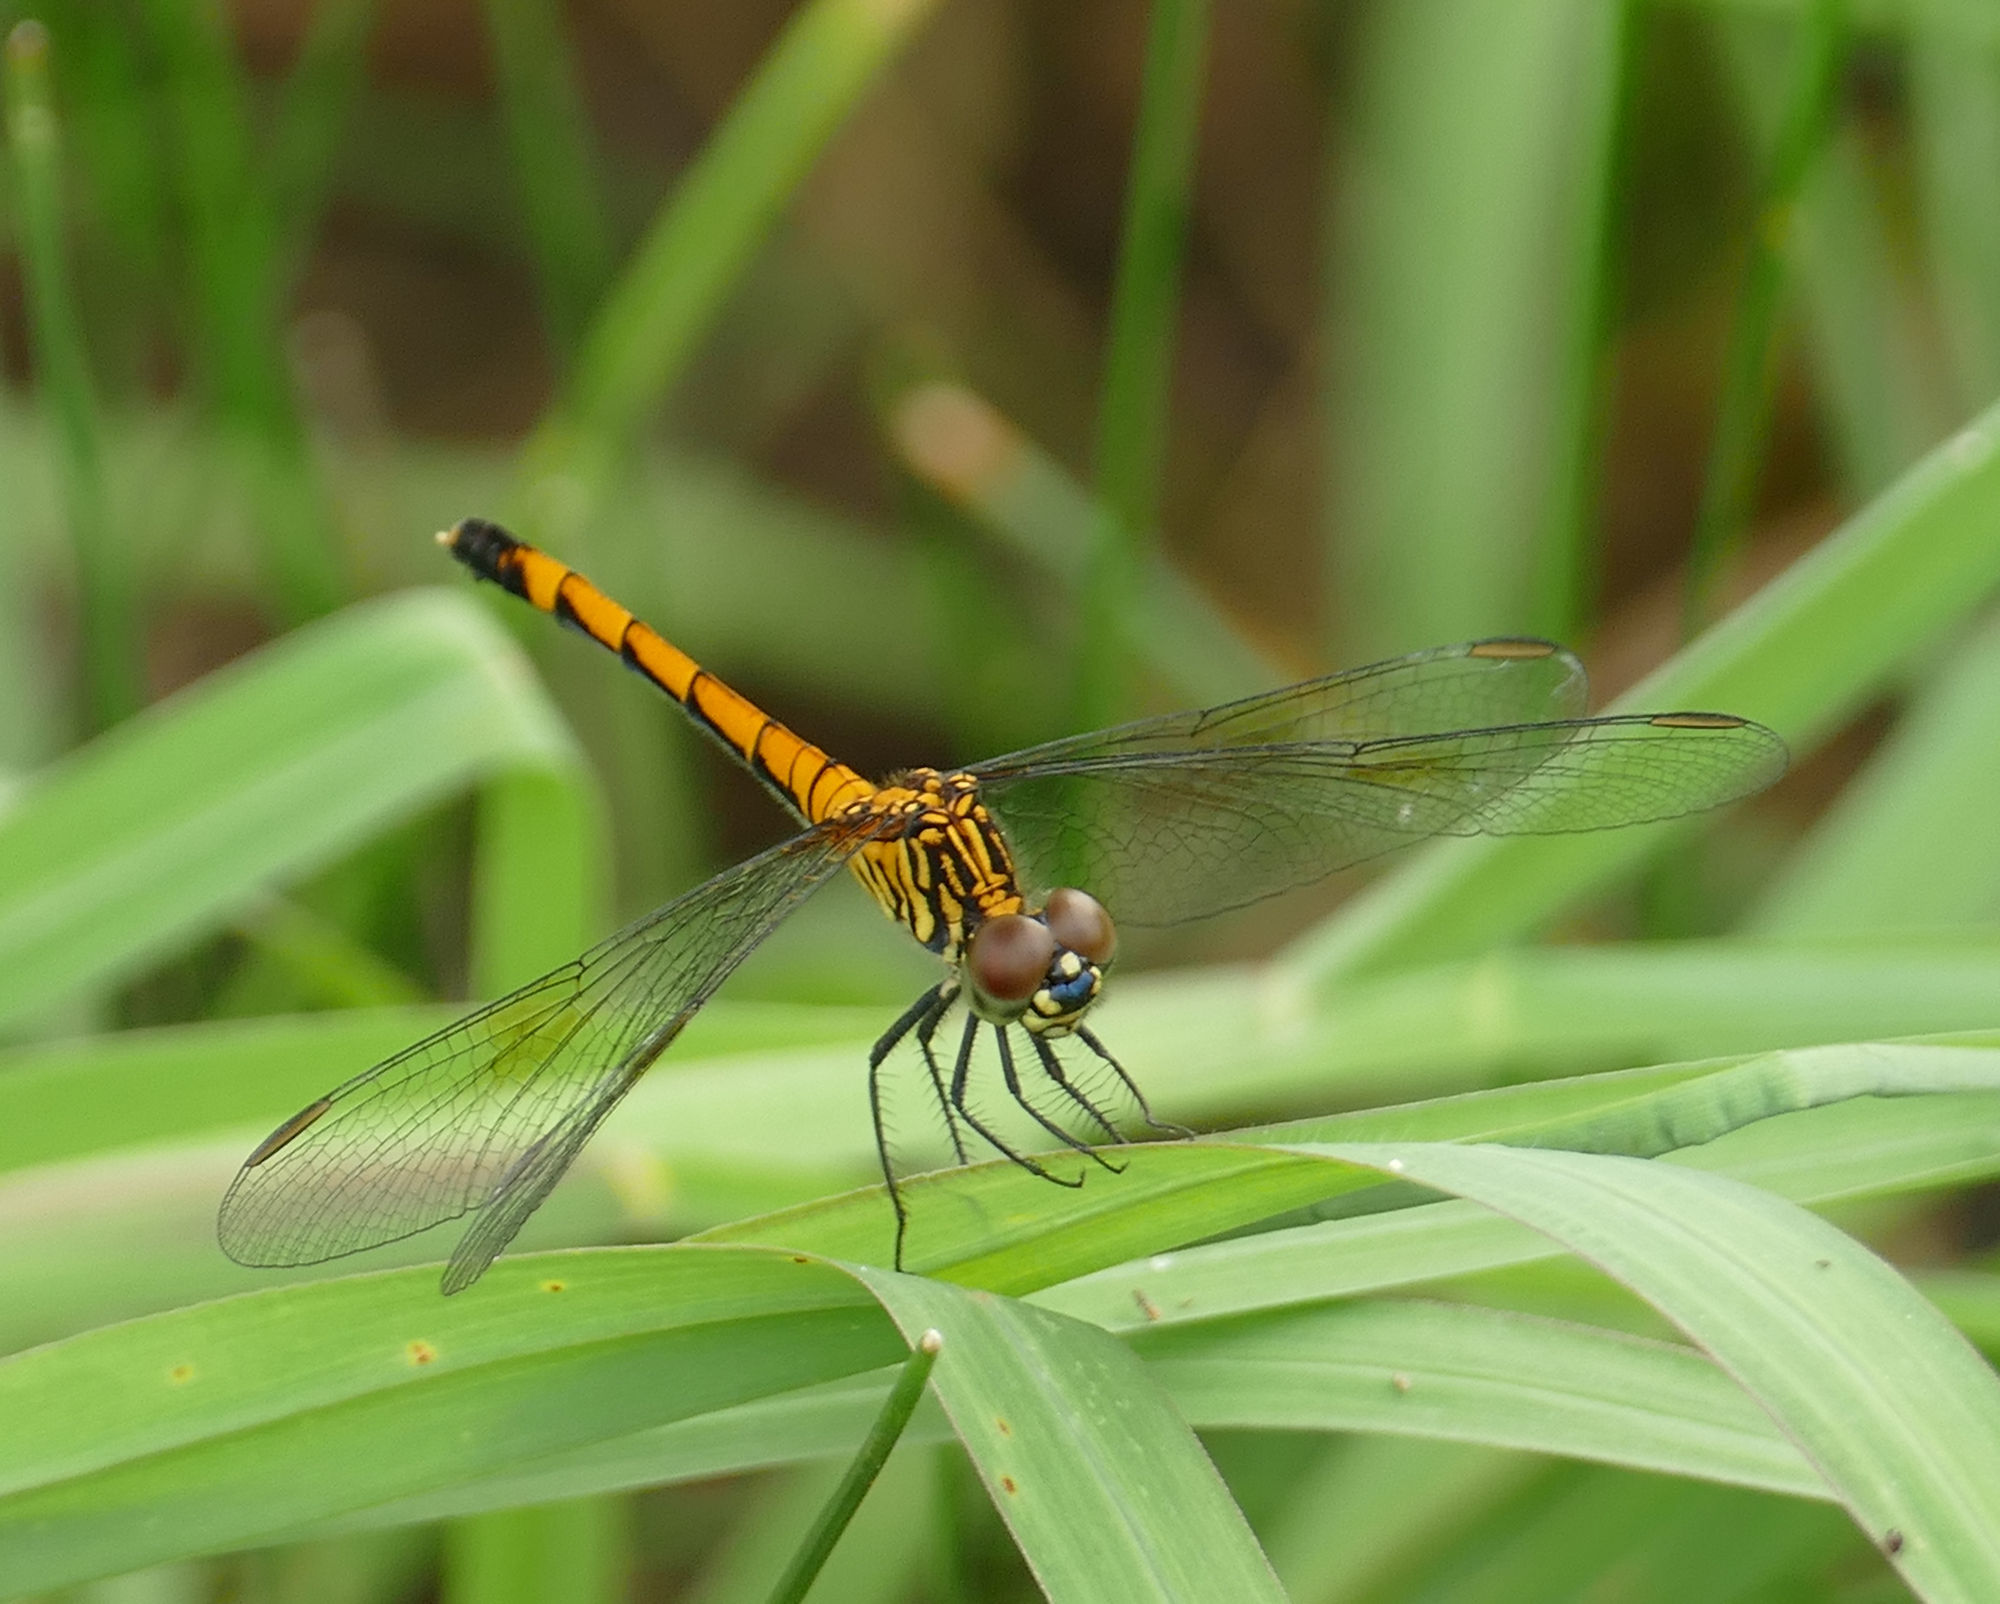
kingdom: Animalia
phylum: Arthropoda
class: Insecta
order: Odonata
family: Libellulidae
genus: Erythrodiplax
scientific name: Erythrodiplax berenice
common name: Seaside dragonlet
